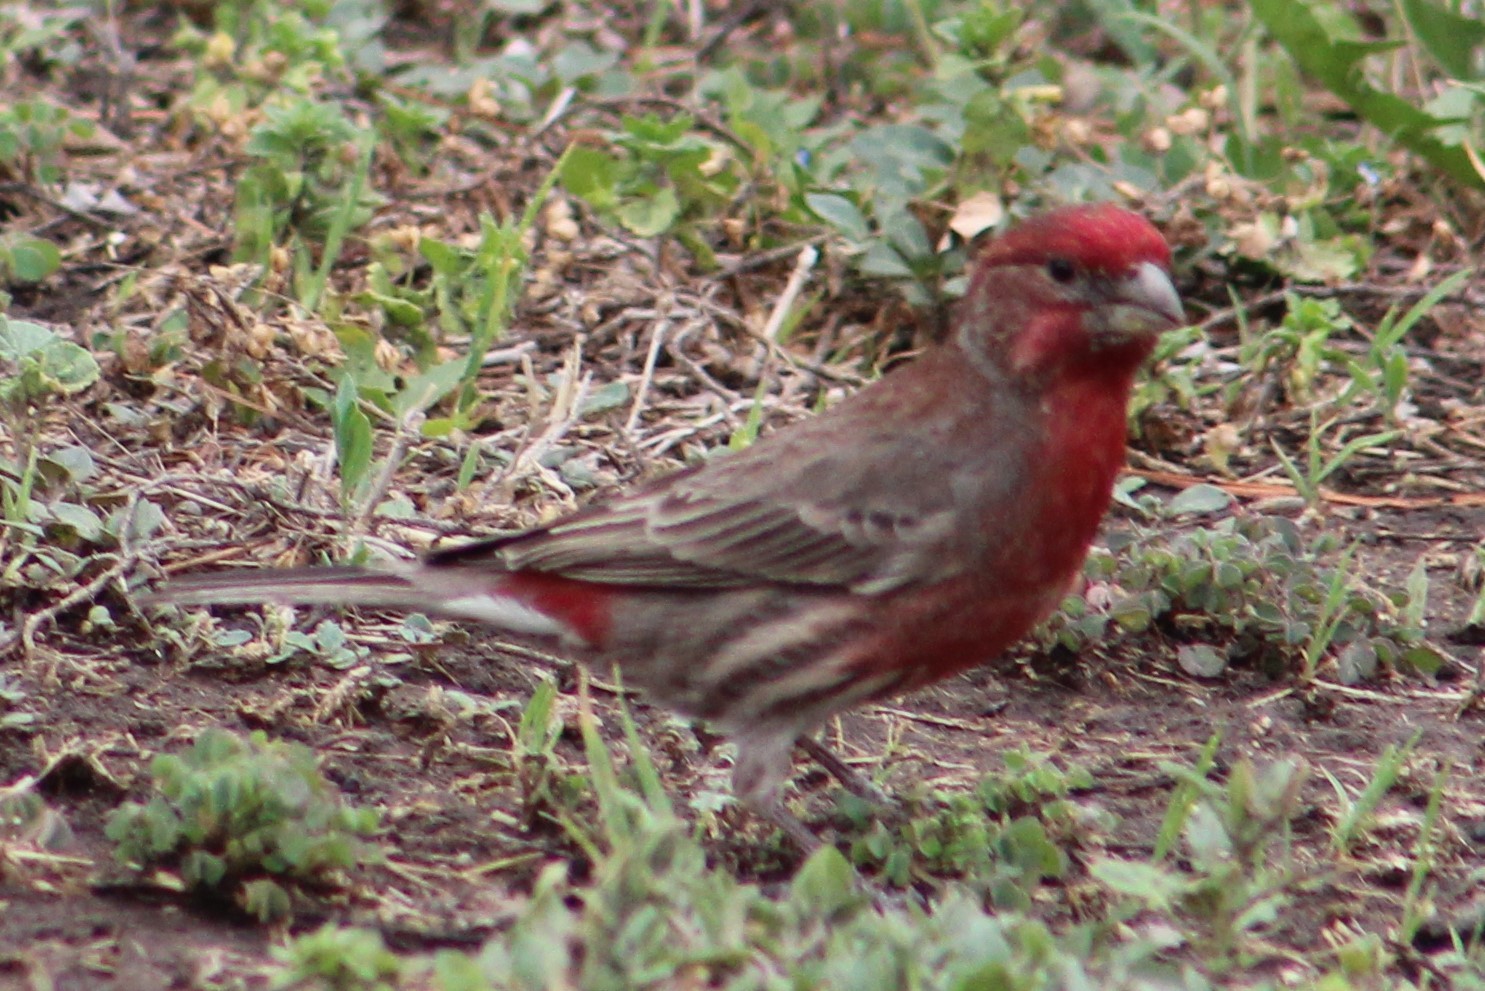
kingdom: Animalia
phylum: Chordata
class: Aves
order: Passeriformes
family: Fringillidae
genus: Haemorhous
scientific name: Haemorhous mexicanus
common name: House finch
